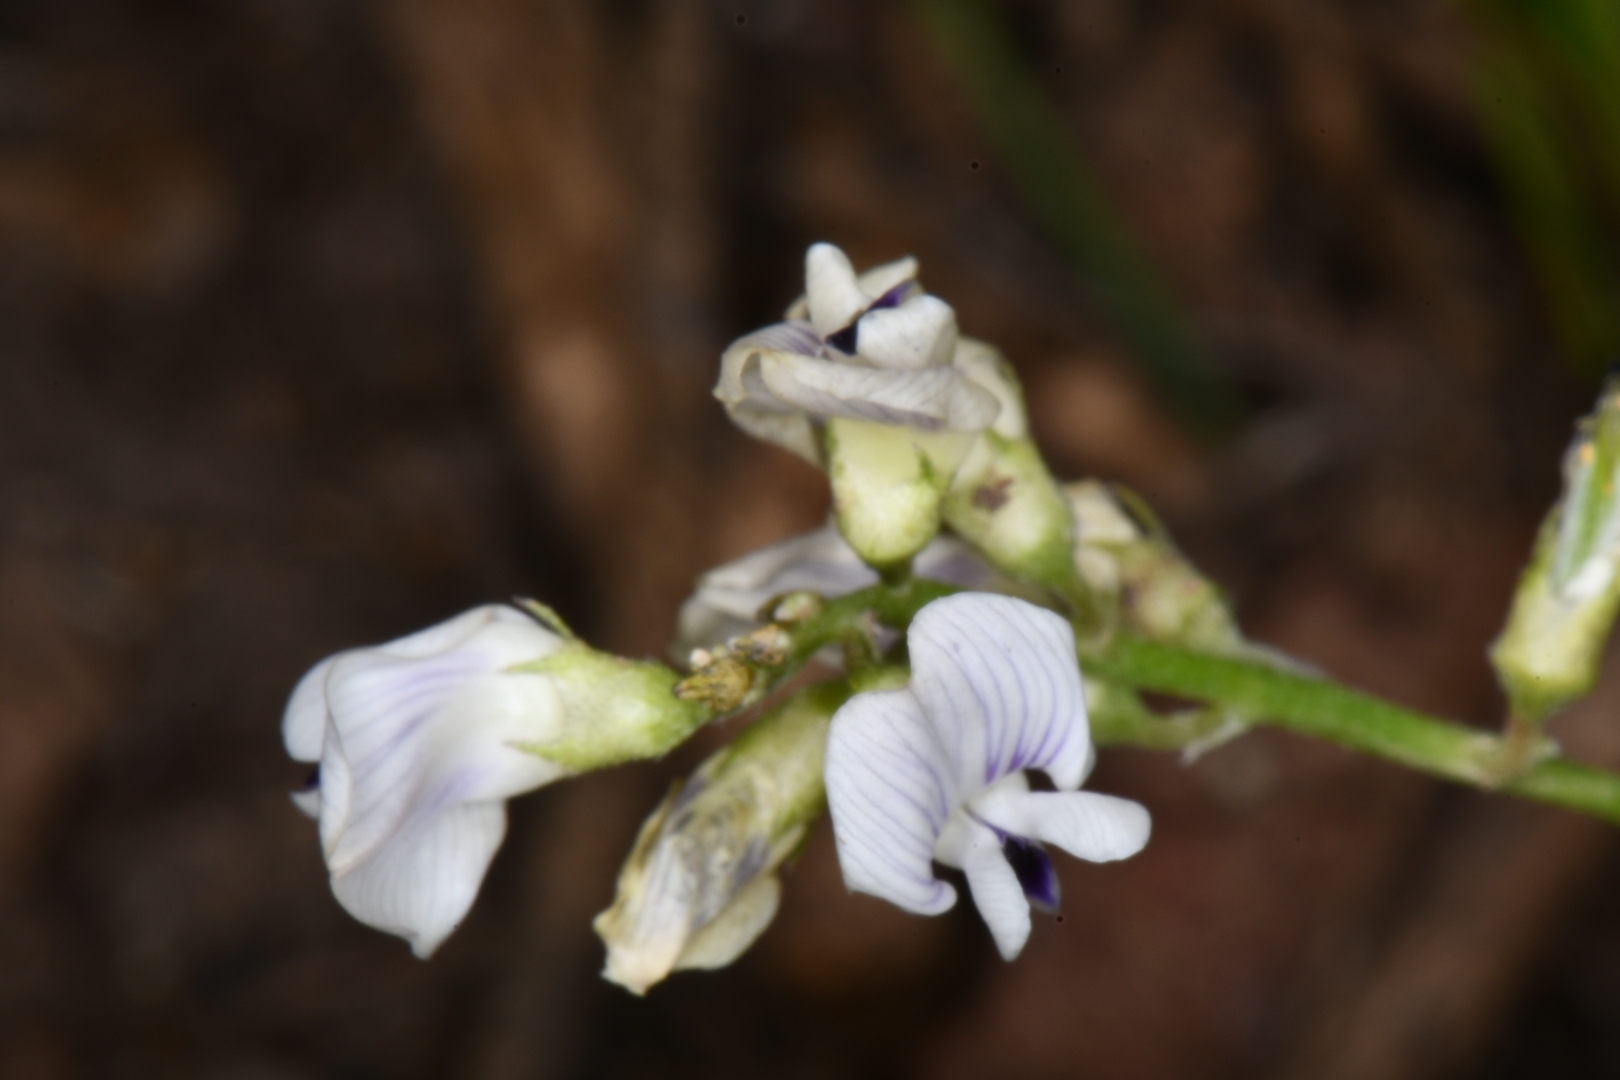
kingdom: Plantae
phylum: Tracheophyta
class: Magnoliopsida
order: Fabales
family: Fabaceae
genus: Astragalus
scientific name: Astragalus miser
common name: Timber milkvetch
